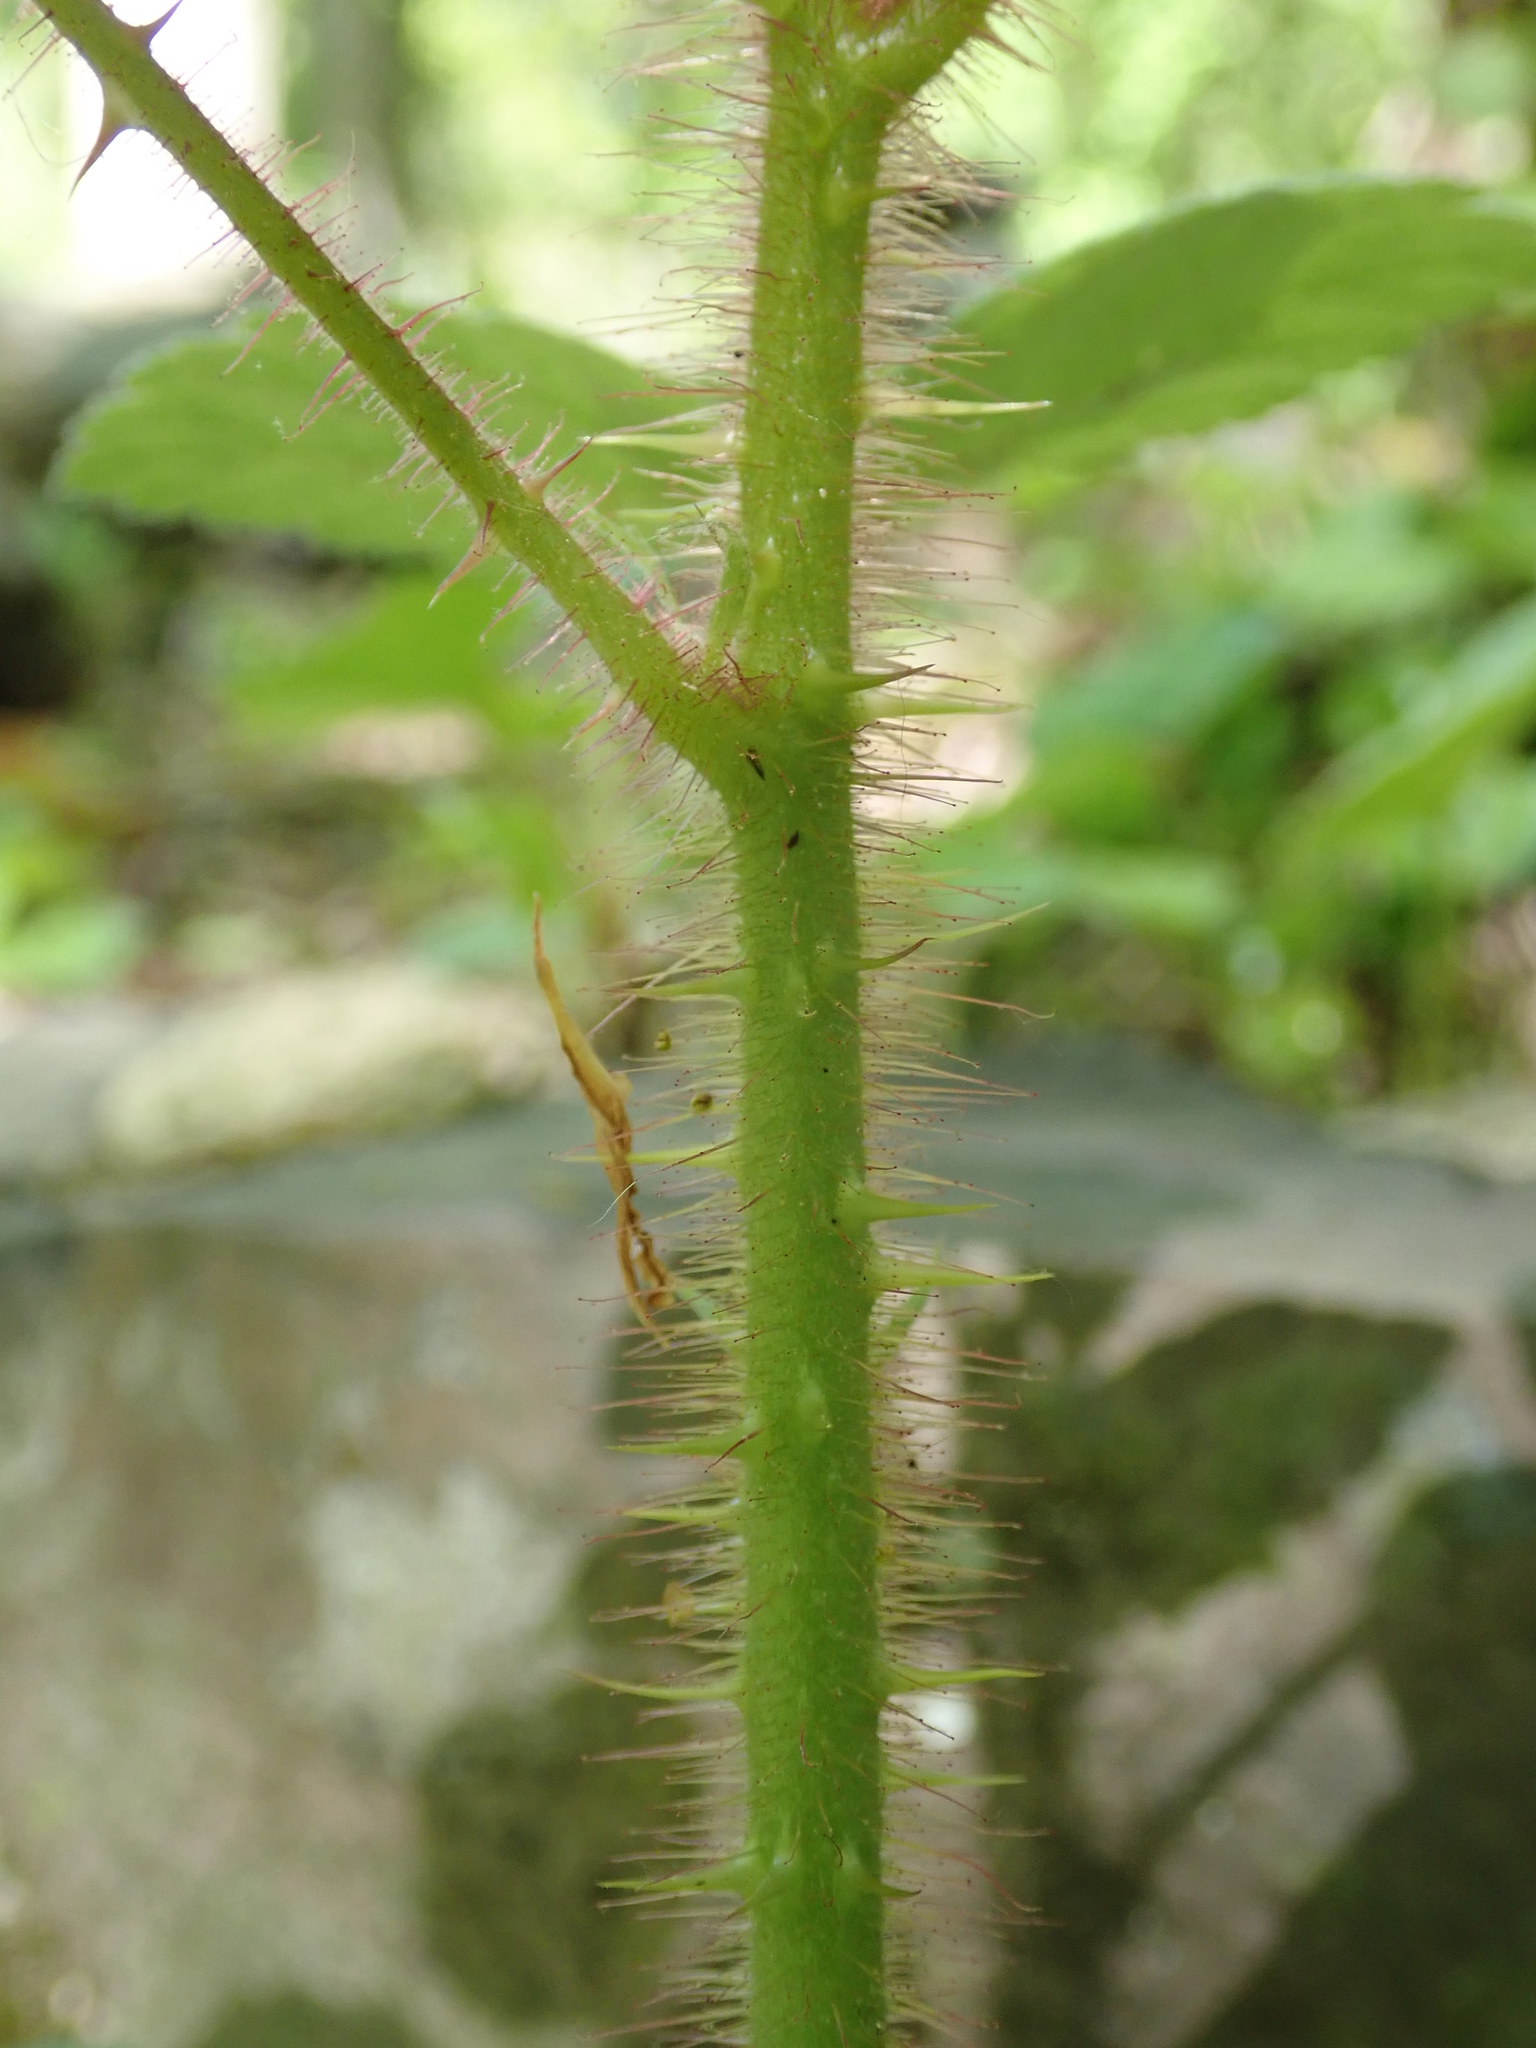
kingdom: Plantae
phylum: Tracheophyta
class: Magnoliopsida
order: Rosales
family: Rosaceae
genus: Rubus
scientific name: Rubus phoenicolasius
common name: Japanese wineberry
